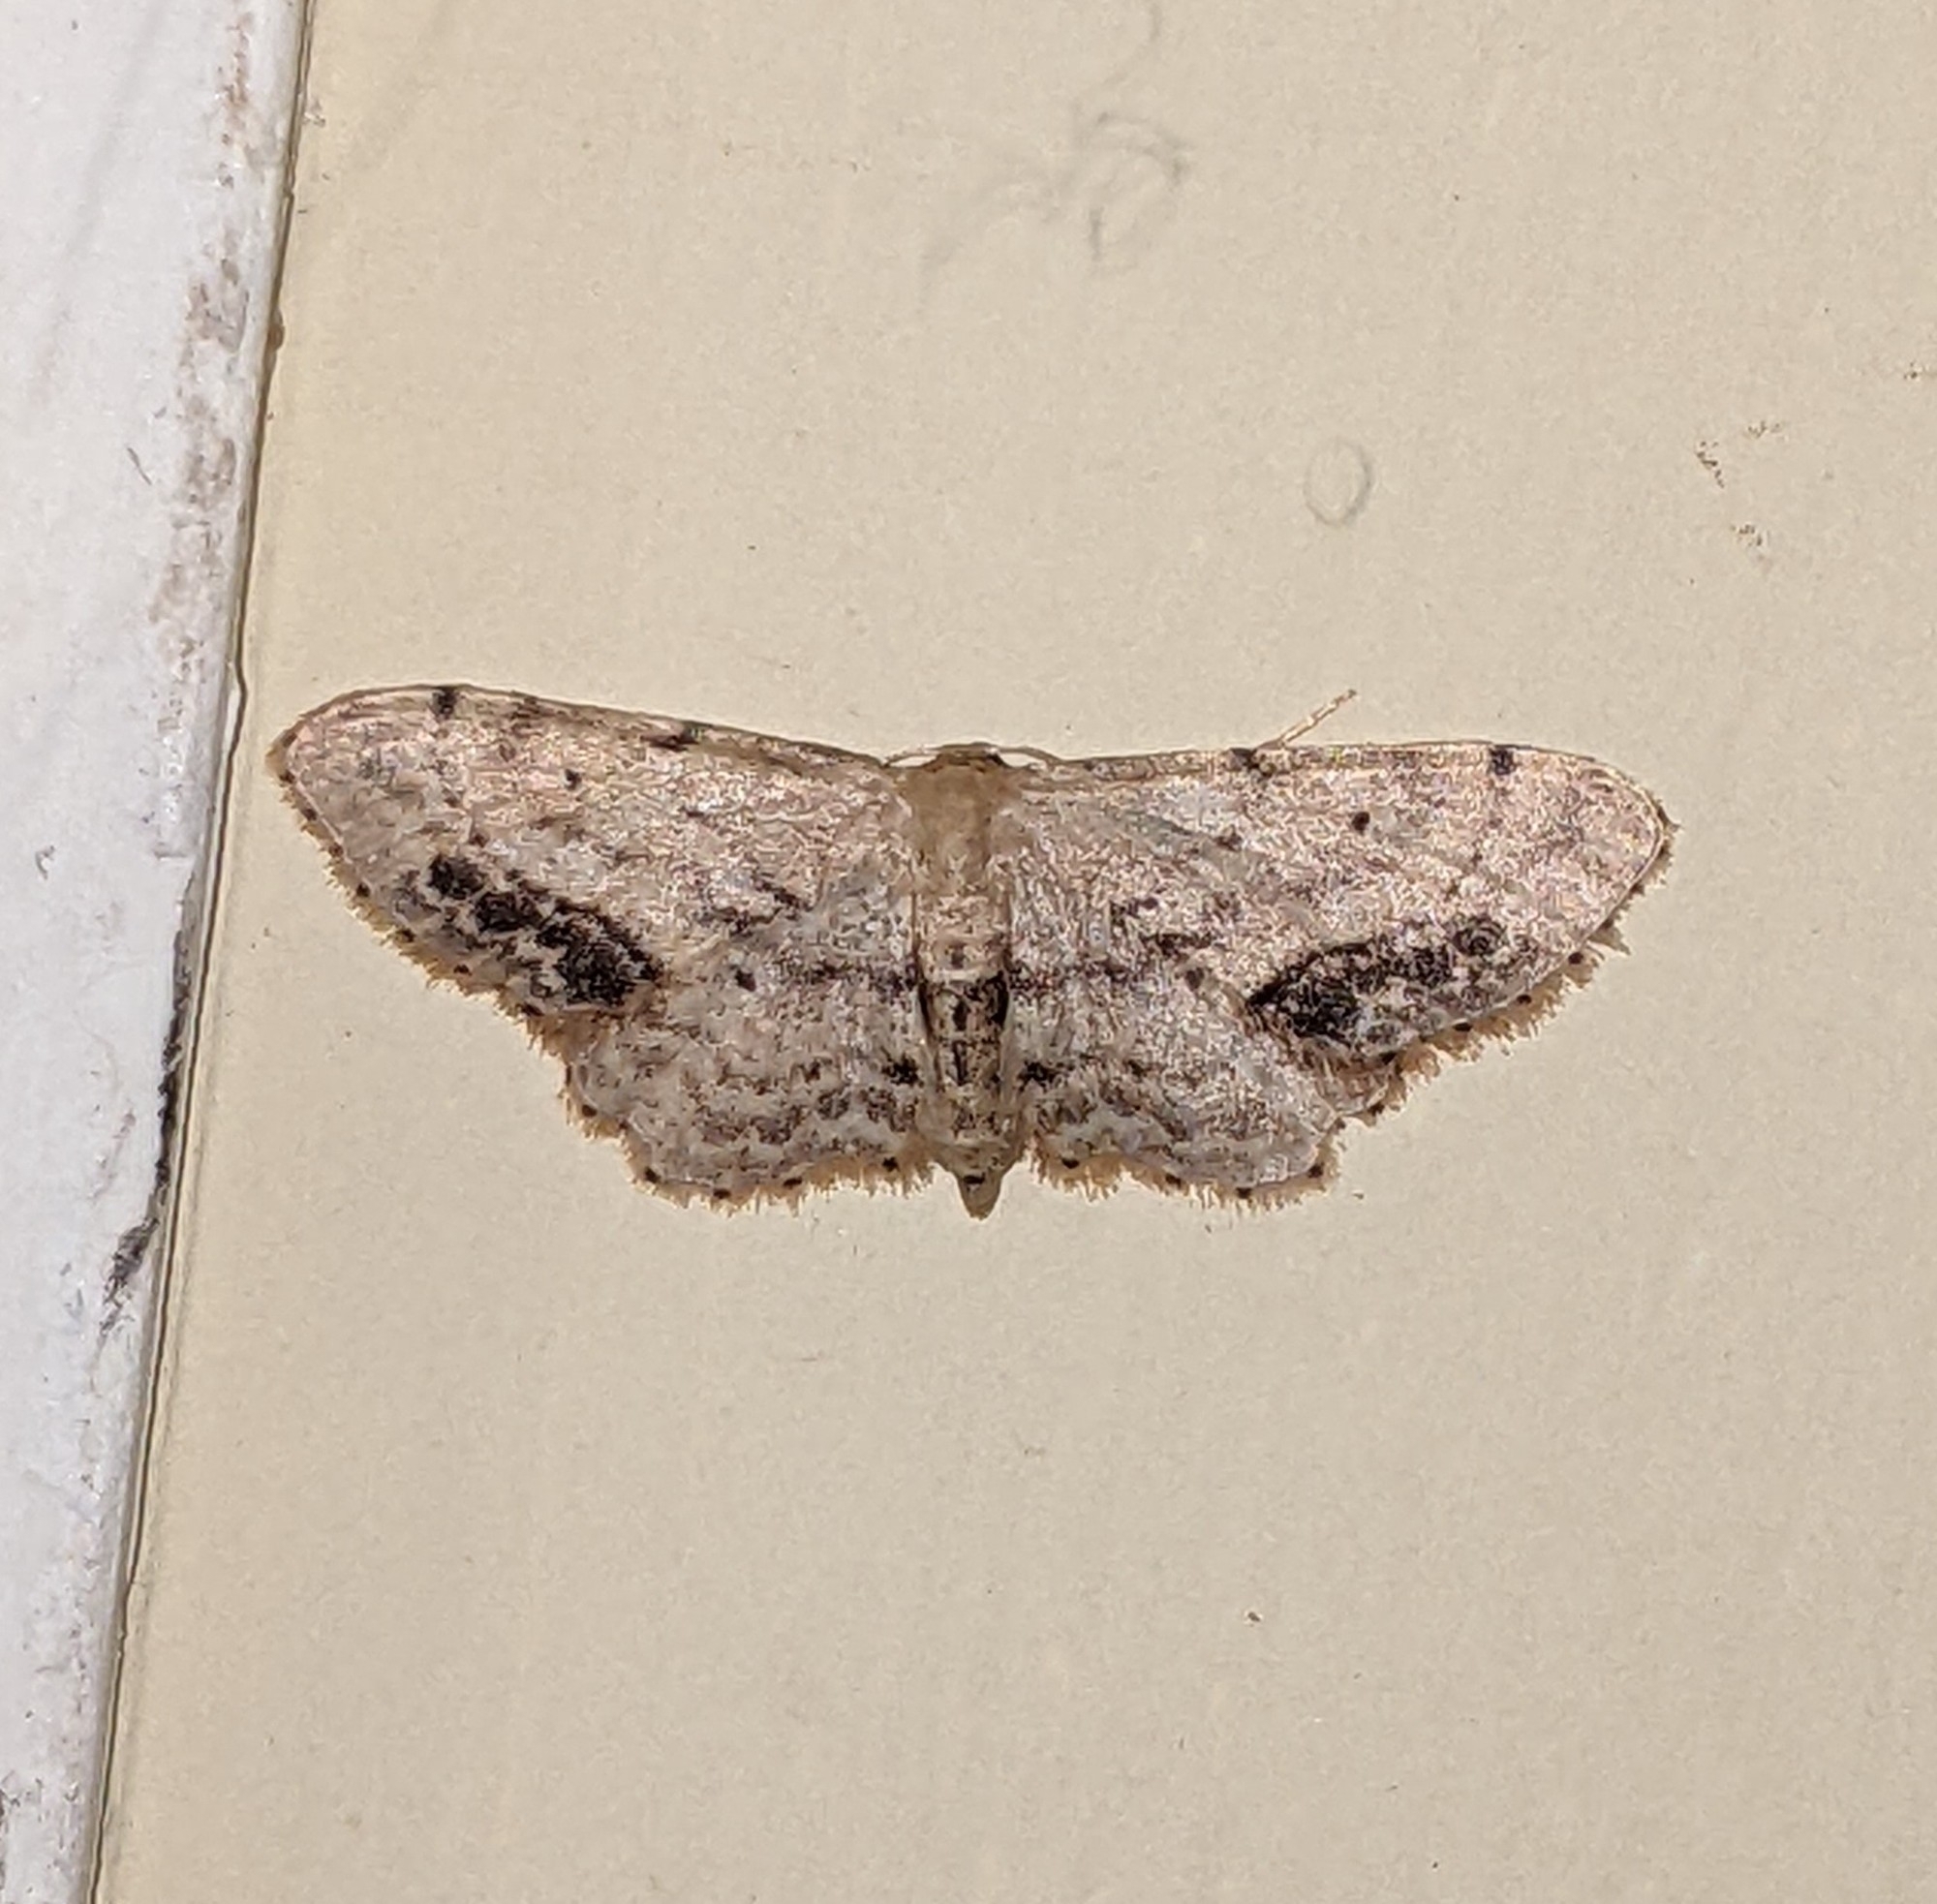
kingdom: Animalia
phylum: Arthropoda
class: Insecta
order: Lepidoptera
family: Geometridae
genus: Idaea
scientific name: Idaea dimidiata
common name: Single-dotted wave
